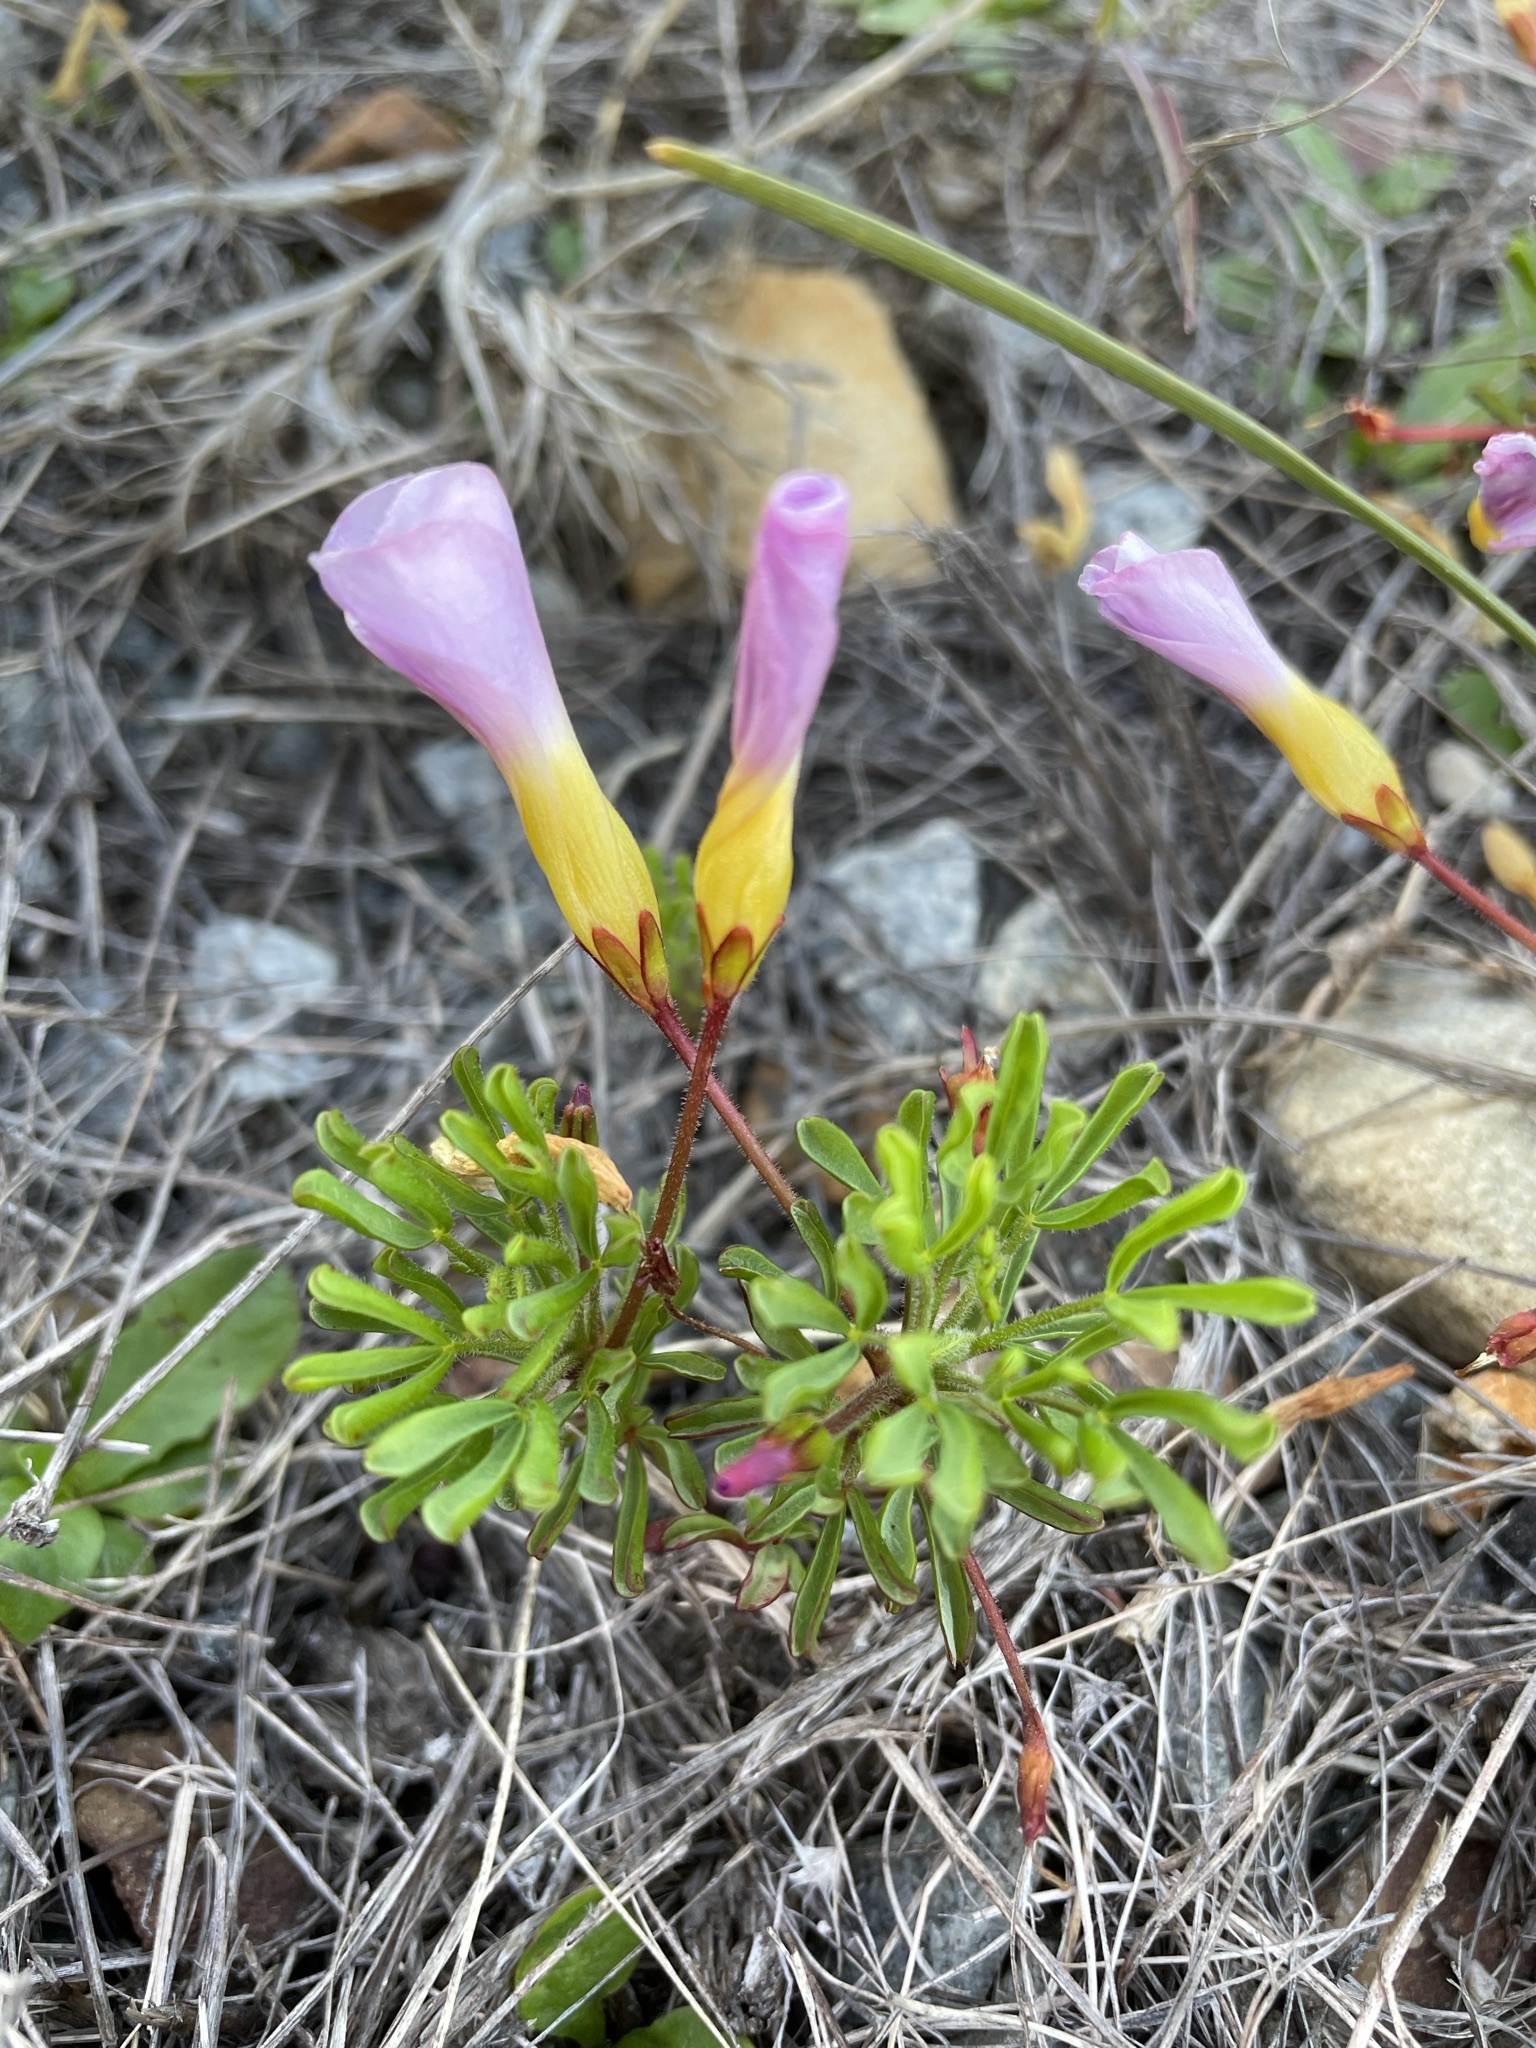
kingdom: Plantae
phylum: Tracheophyta
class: Magnoliopsida
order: Oxalidales
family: Oxalidaceae
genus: Oxalis
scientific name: Oxalis recticaulis
